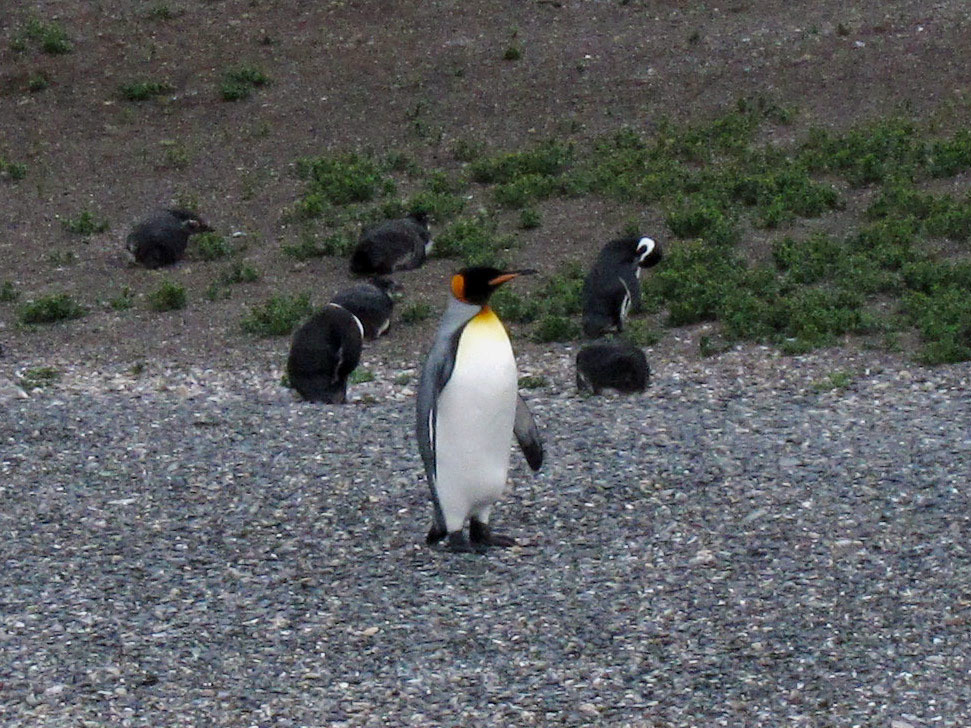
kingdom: Animalia
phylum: Chordata
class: Aves
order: Sphenisciformes
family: Spheniscidae
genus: Aptenodytes
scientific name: Aptenodytes patagonicus
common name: King penguin
